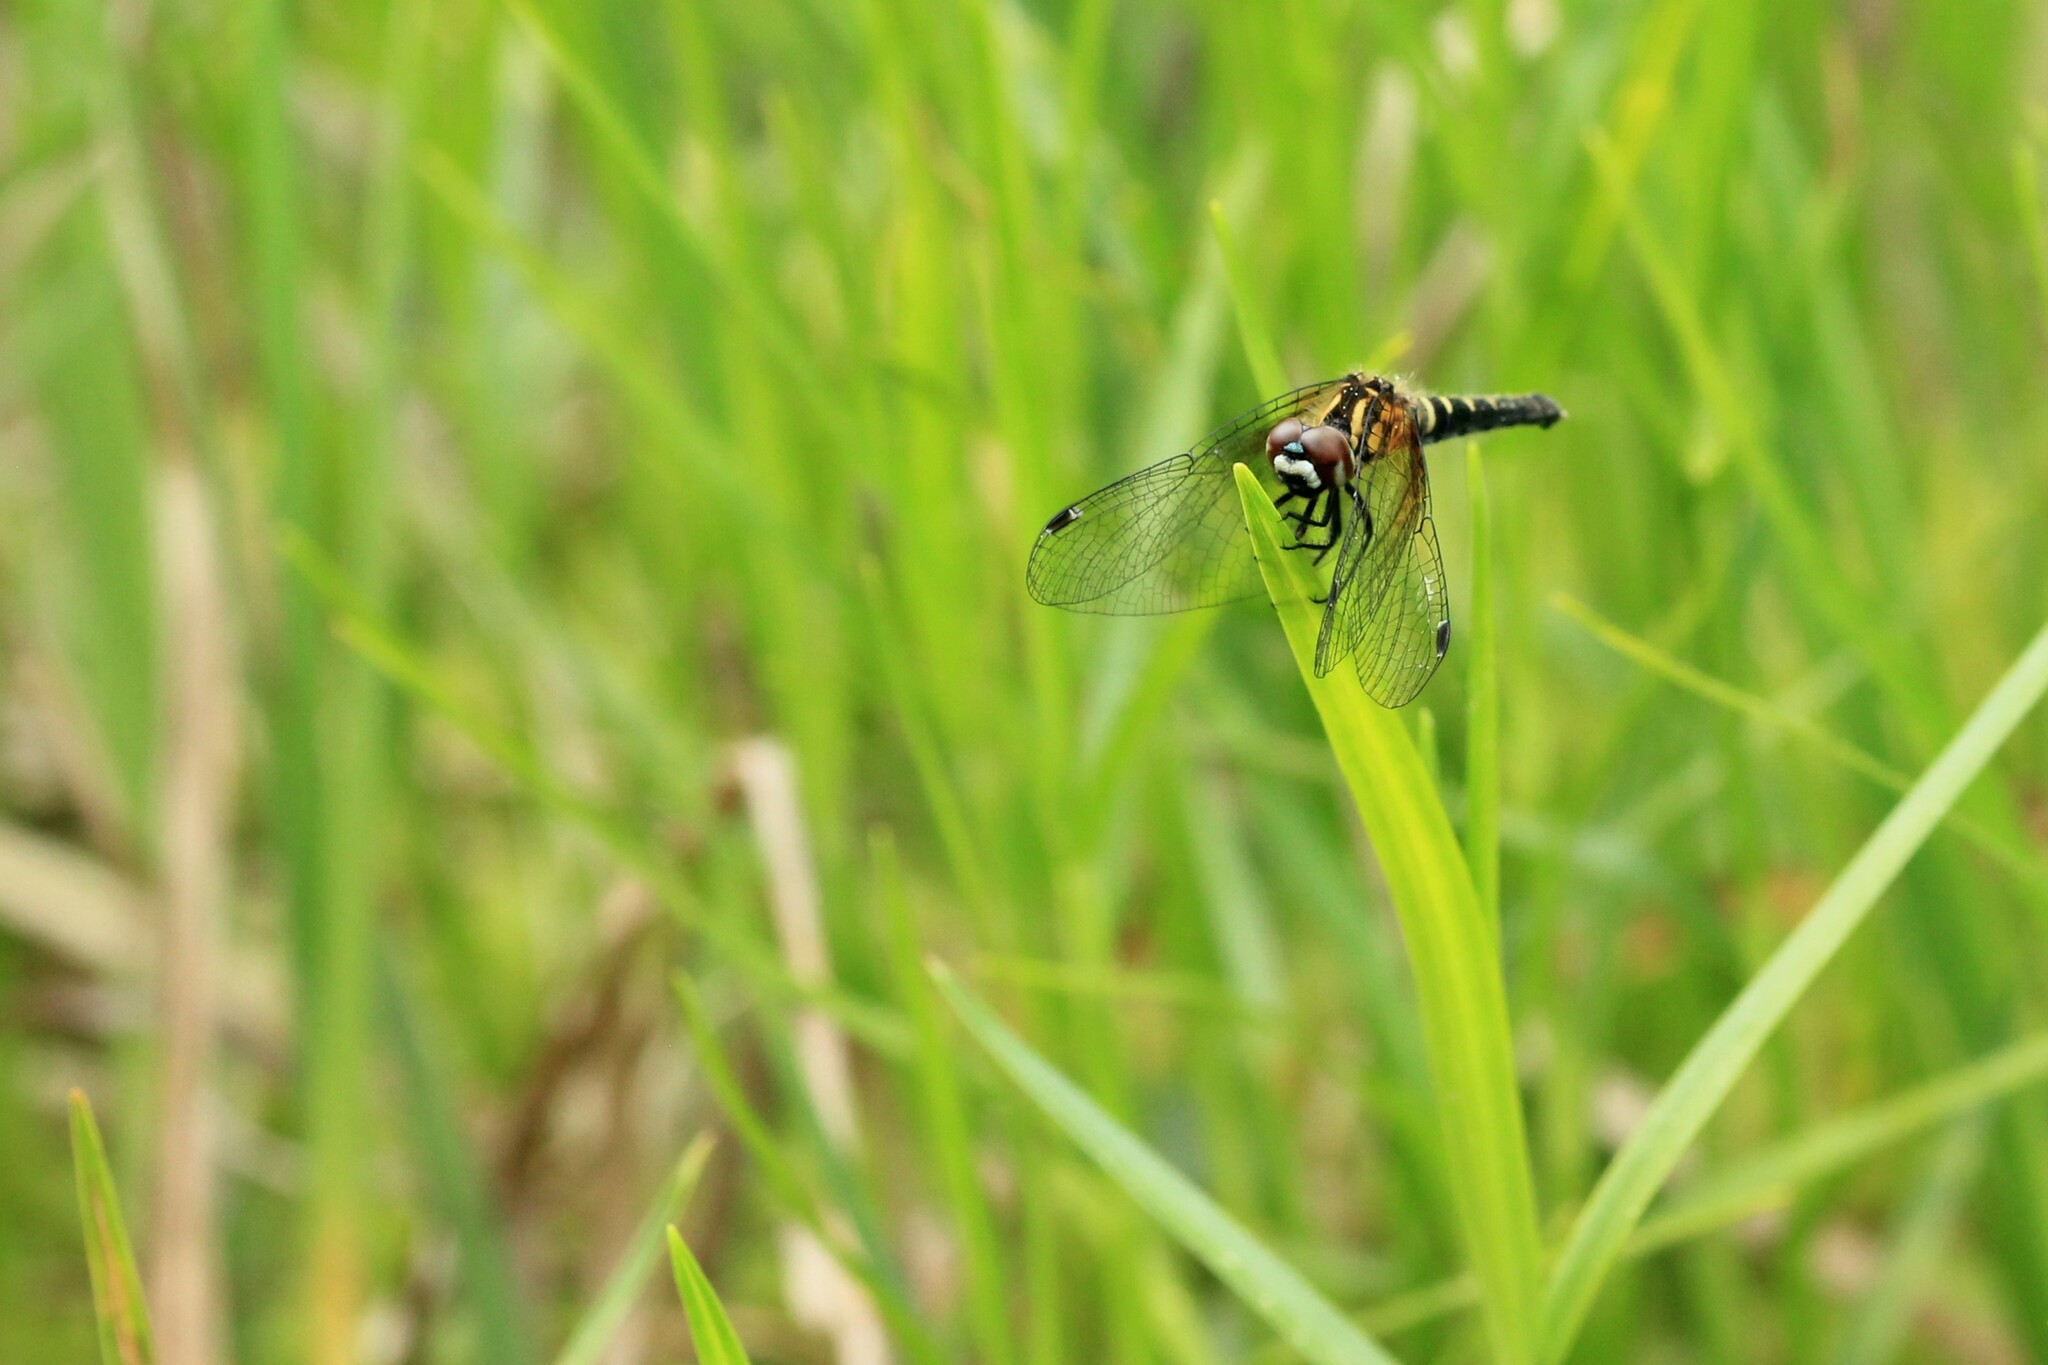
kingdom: Animalia
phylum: Arthropoda
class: Insecta
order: Odonata
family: Libellulidae
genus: Nannothemis
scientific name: Nannothemis bella
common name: Elfin skimmer
